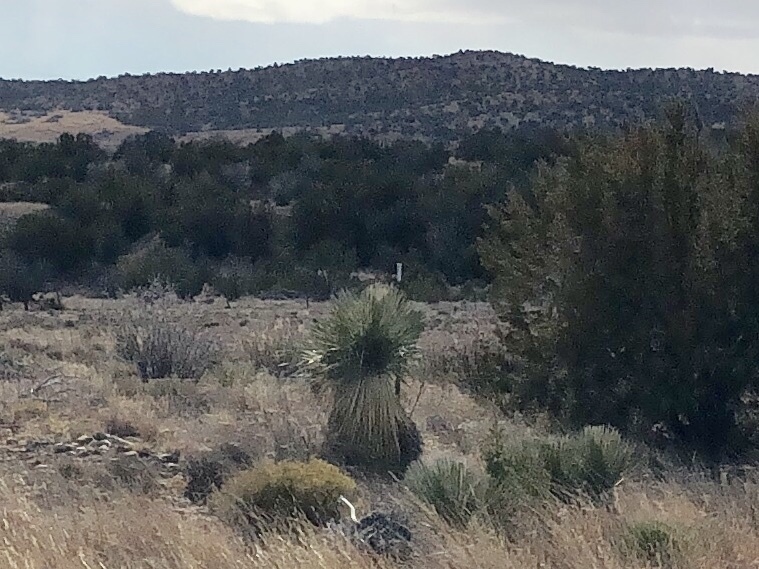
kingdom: Plantae
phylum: Tracheophyta
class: Liliopsida
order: Asparagales
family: Asparagaceae
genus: Yucca
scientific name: Yucca elata
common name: Palmella
